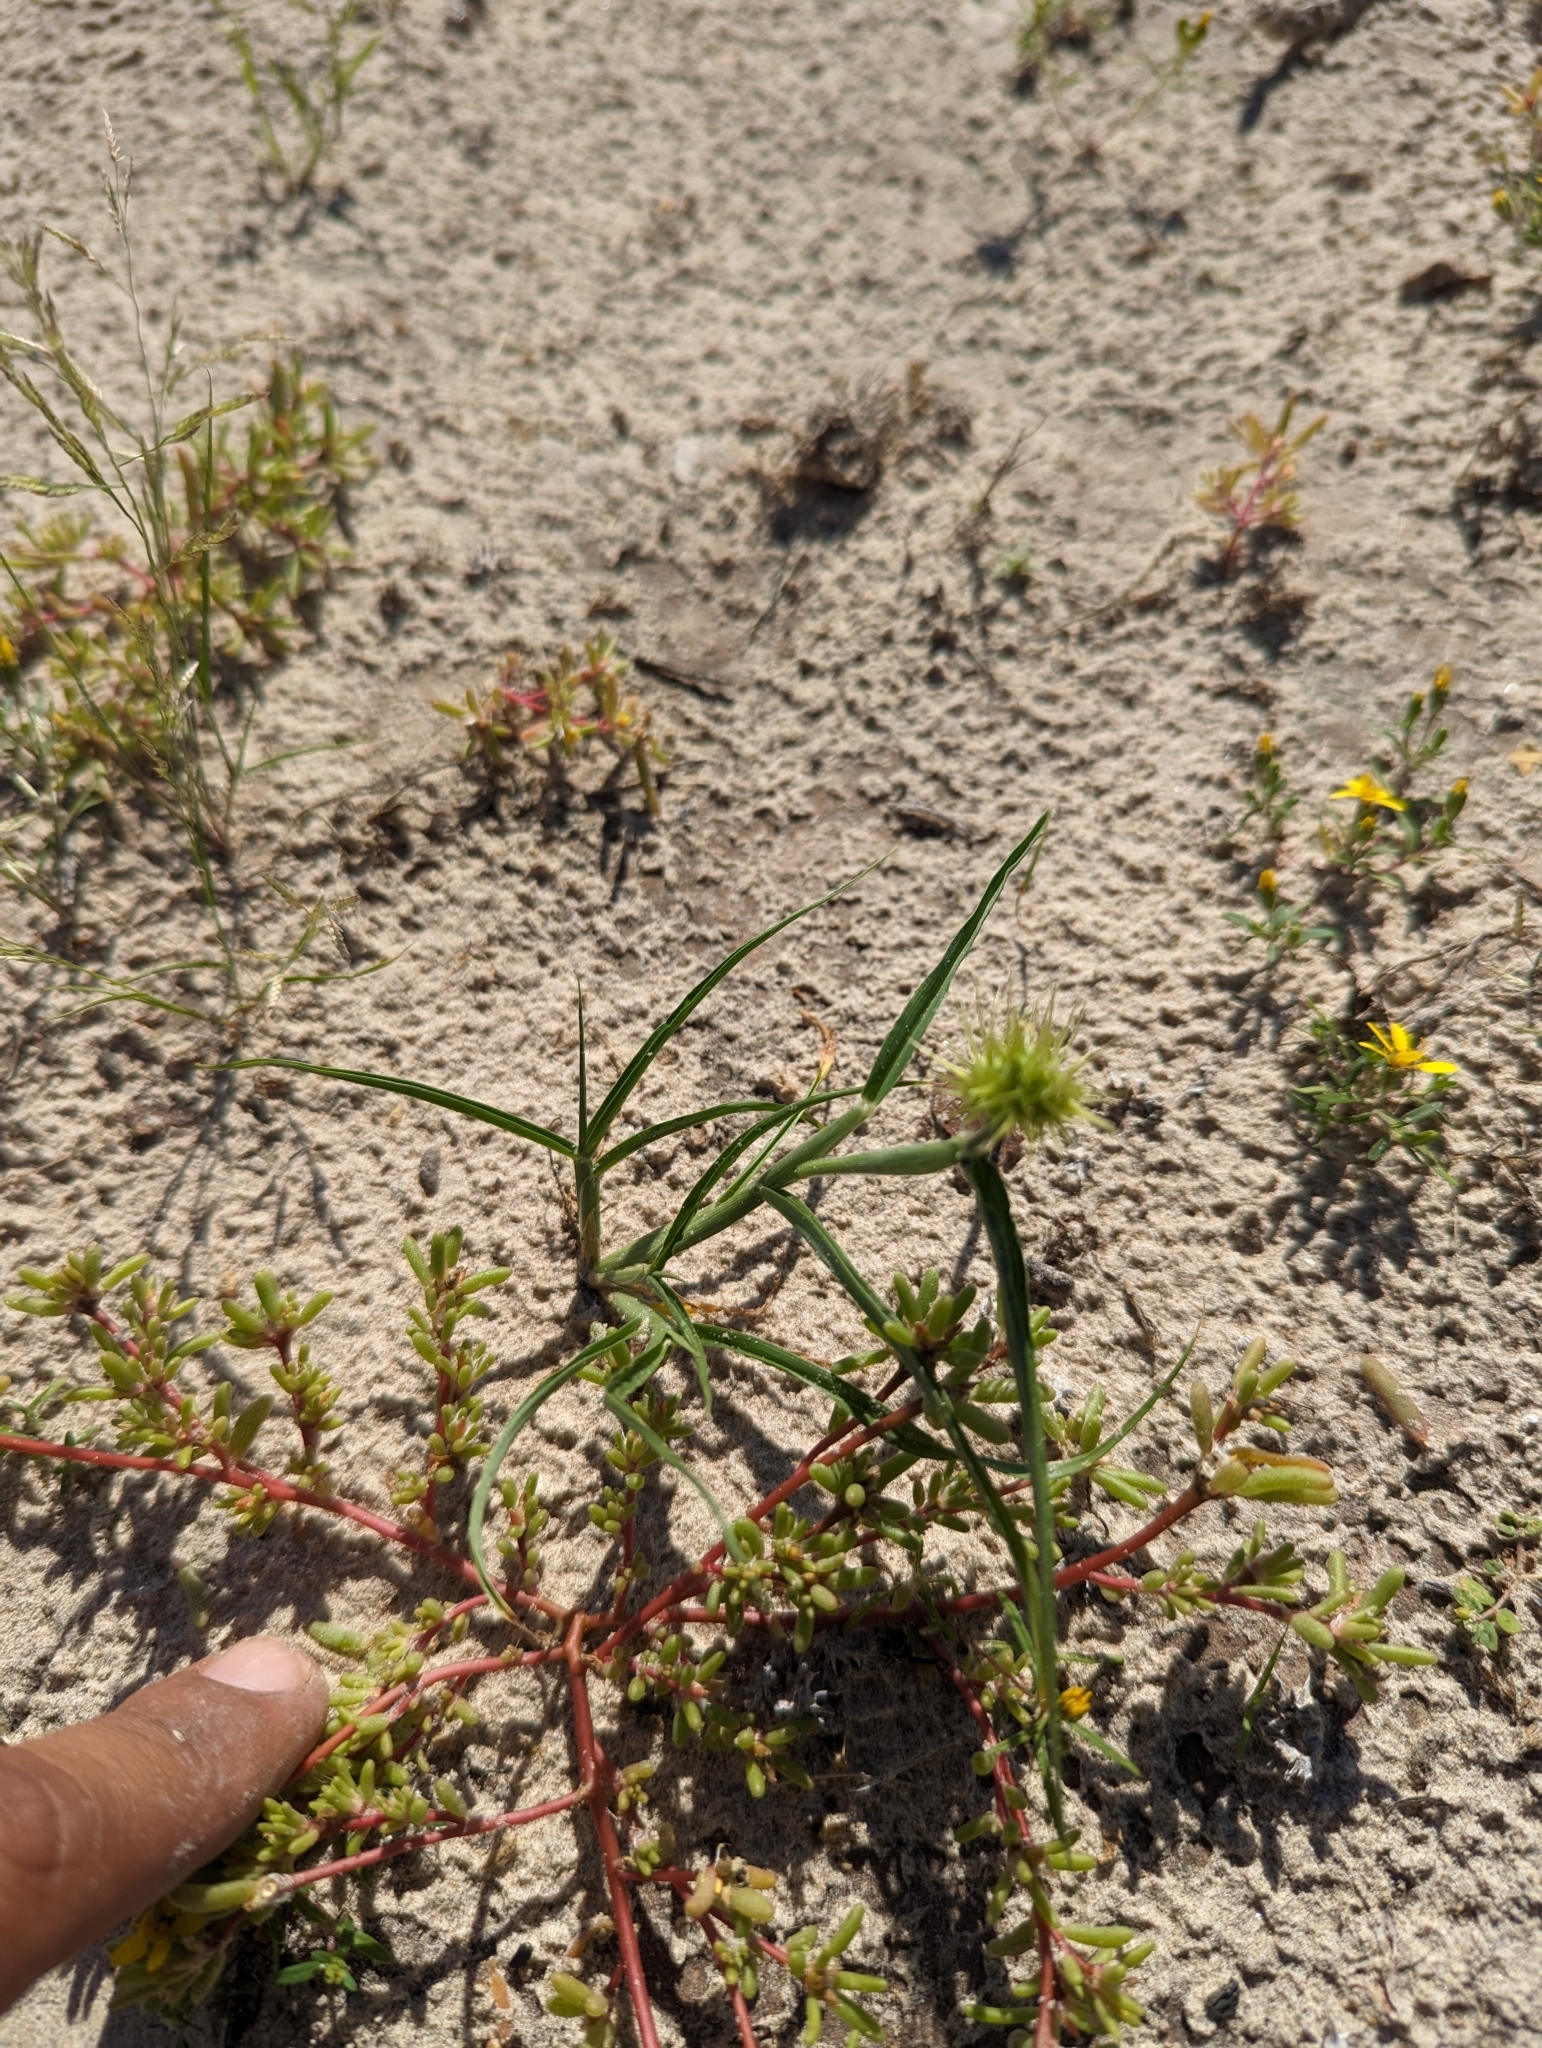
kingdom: Plantae
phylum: Tracheophyta
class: Liliopsida
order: Poales
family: Poaceae
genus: Cenchrus
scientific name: Cenchrus palmeri
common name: Giant sandbur
